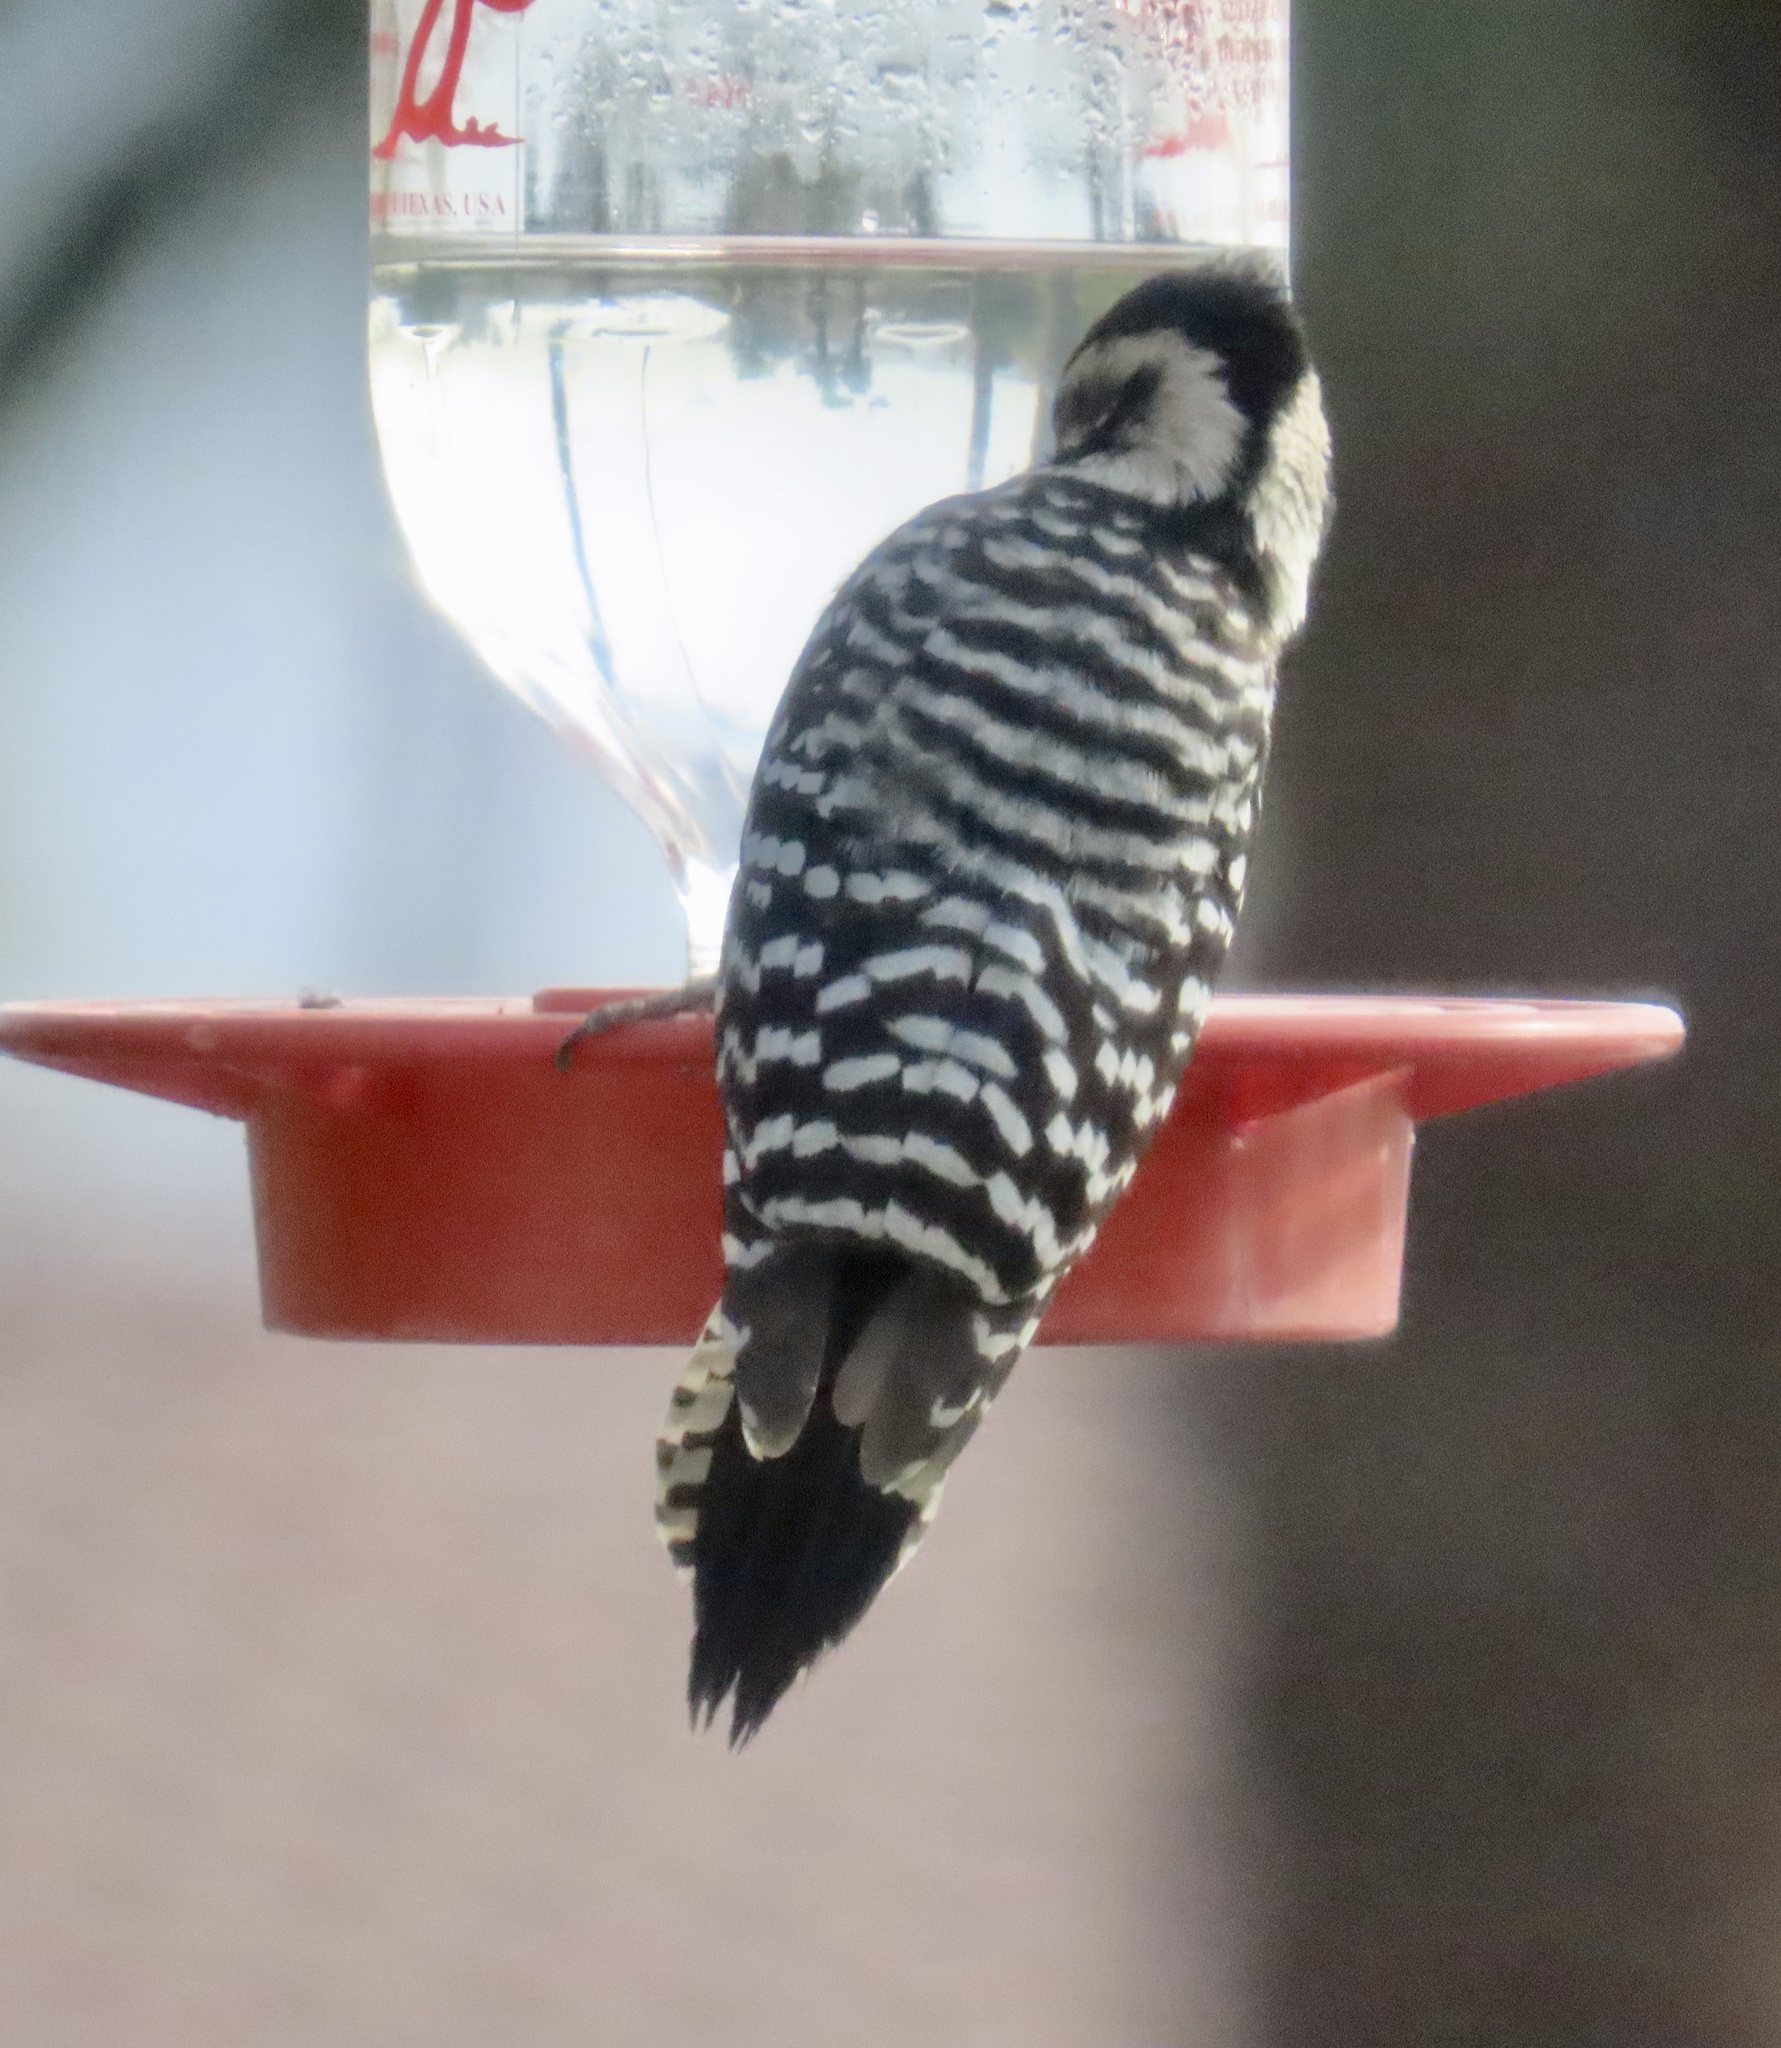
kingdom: Animalia
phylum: Chordata
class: Aves
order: Piciformes
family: Picidae
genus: Dryobates
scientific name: Dryobates scalaris
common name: Ladder-backed woodpecker
